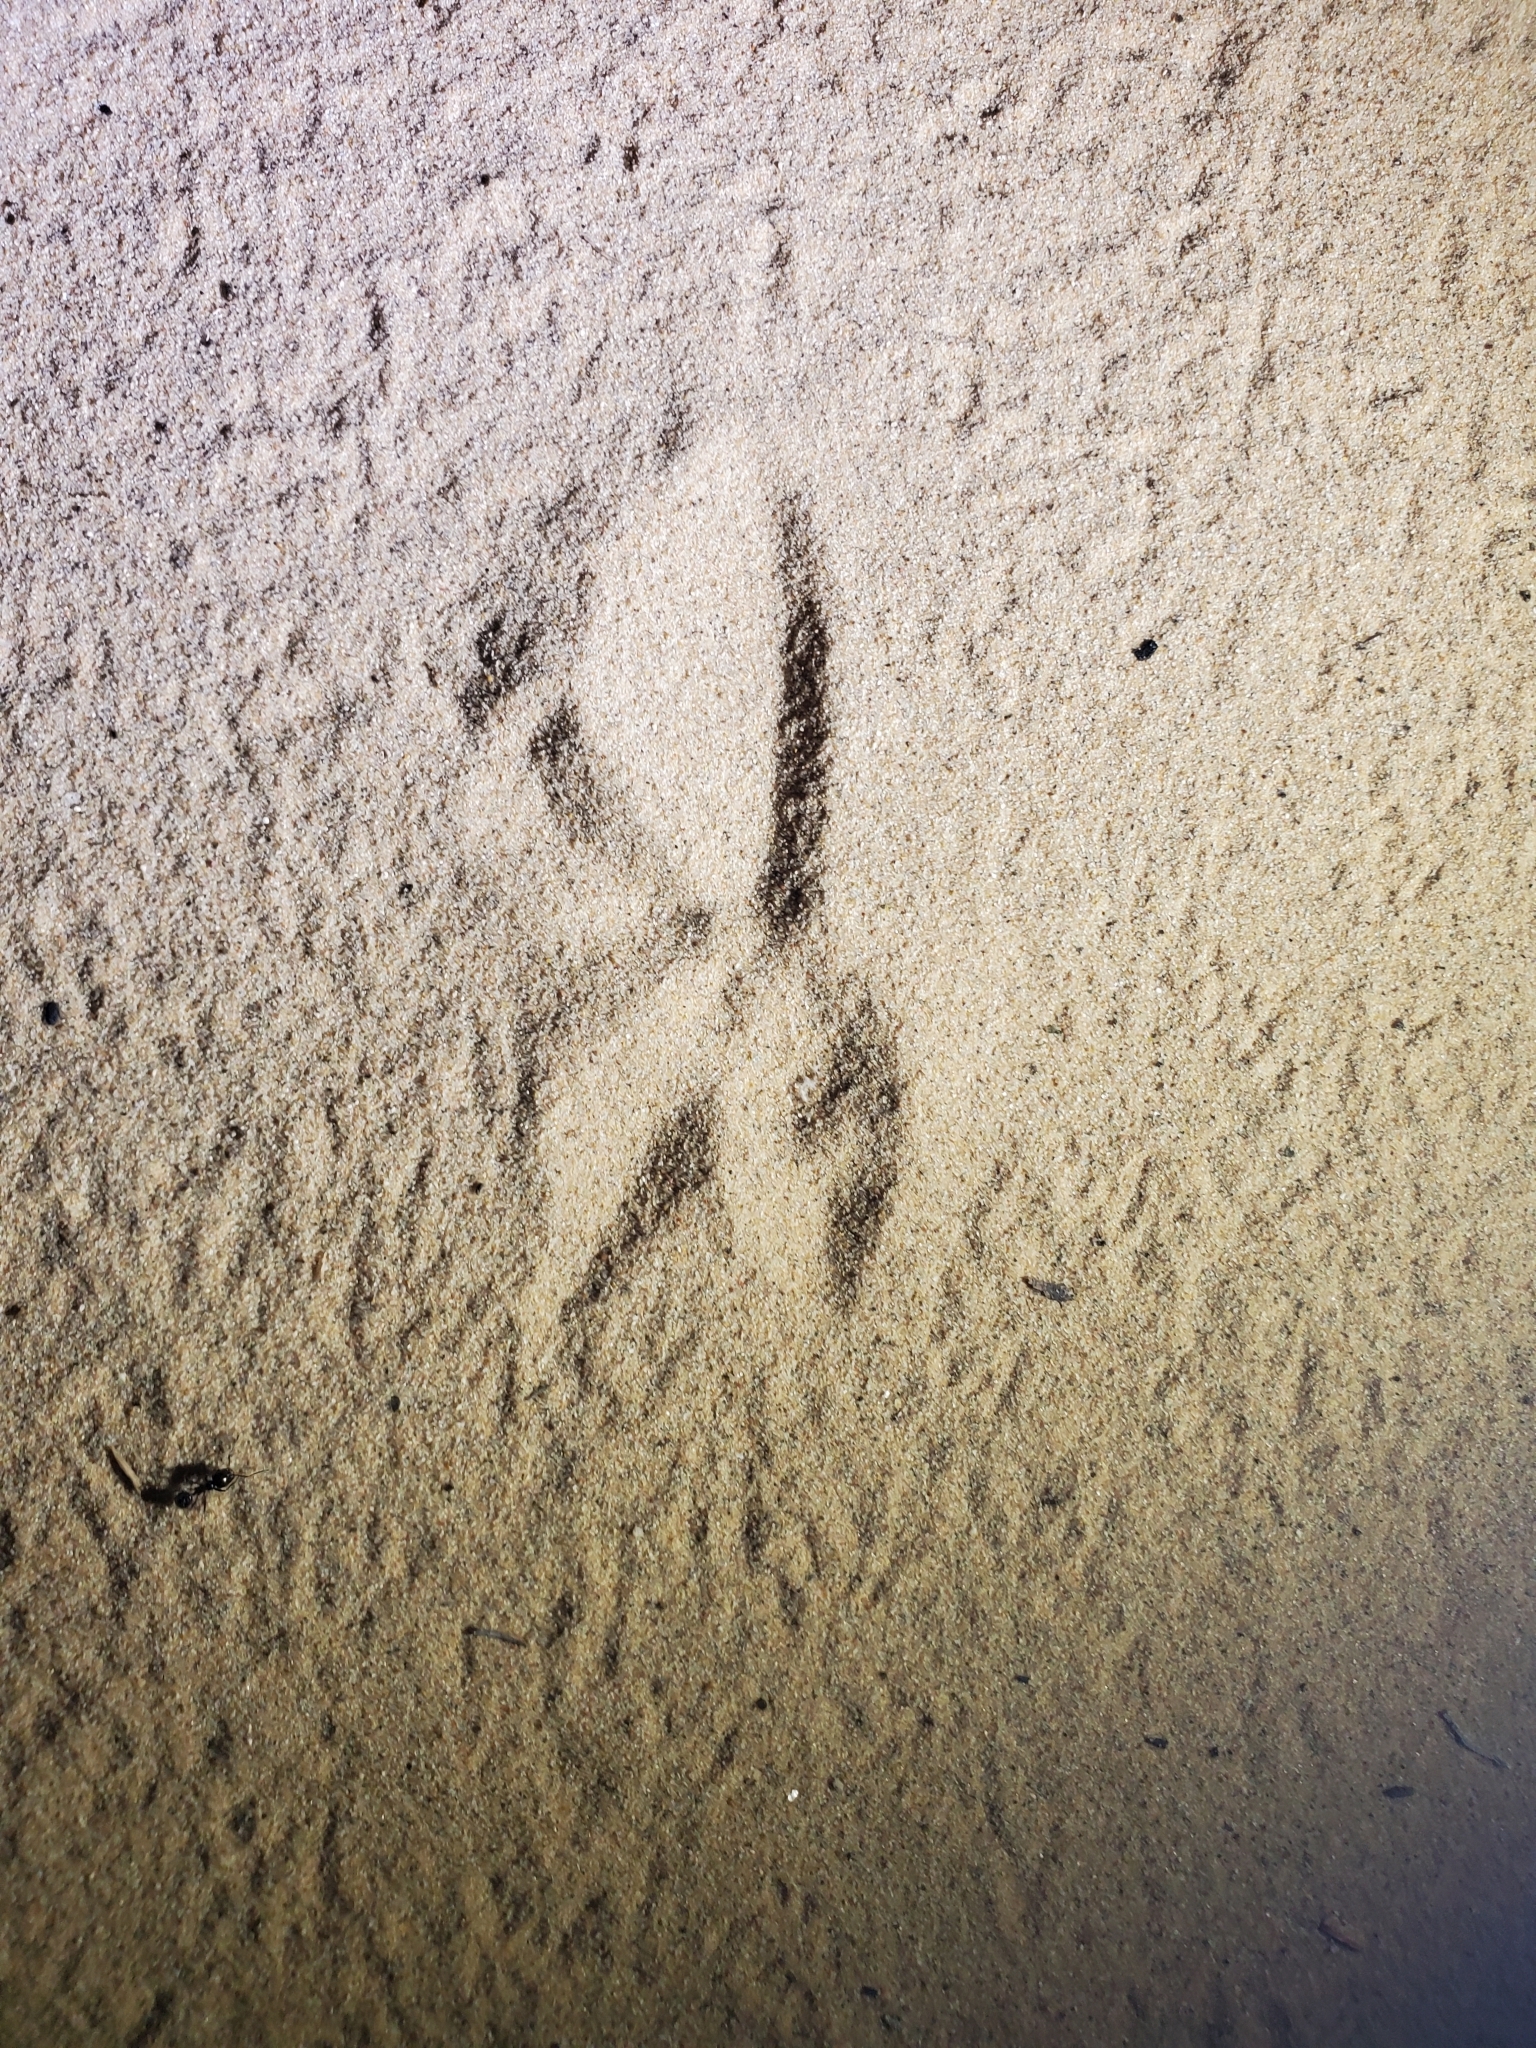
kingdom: Animalia
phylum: Chordata
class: Aves
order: Cuculiformes
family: Cuculidae
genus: Geococcyx
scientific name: Geococcyx californianus
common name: Greater roadrunner
